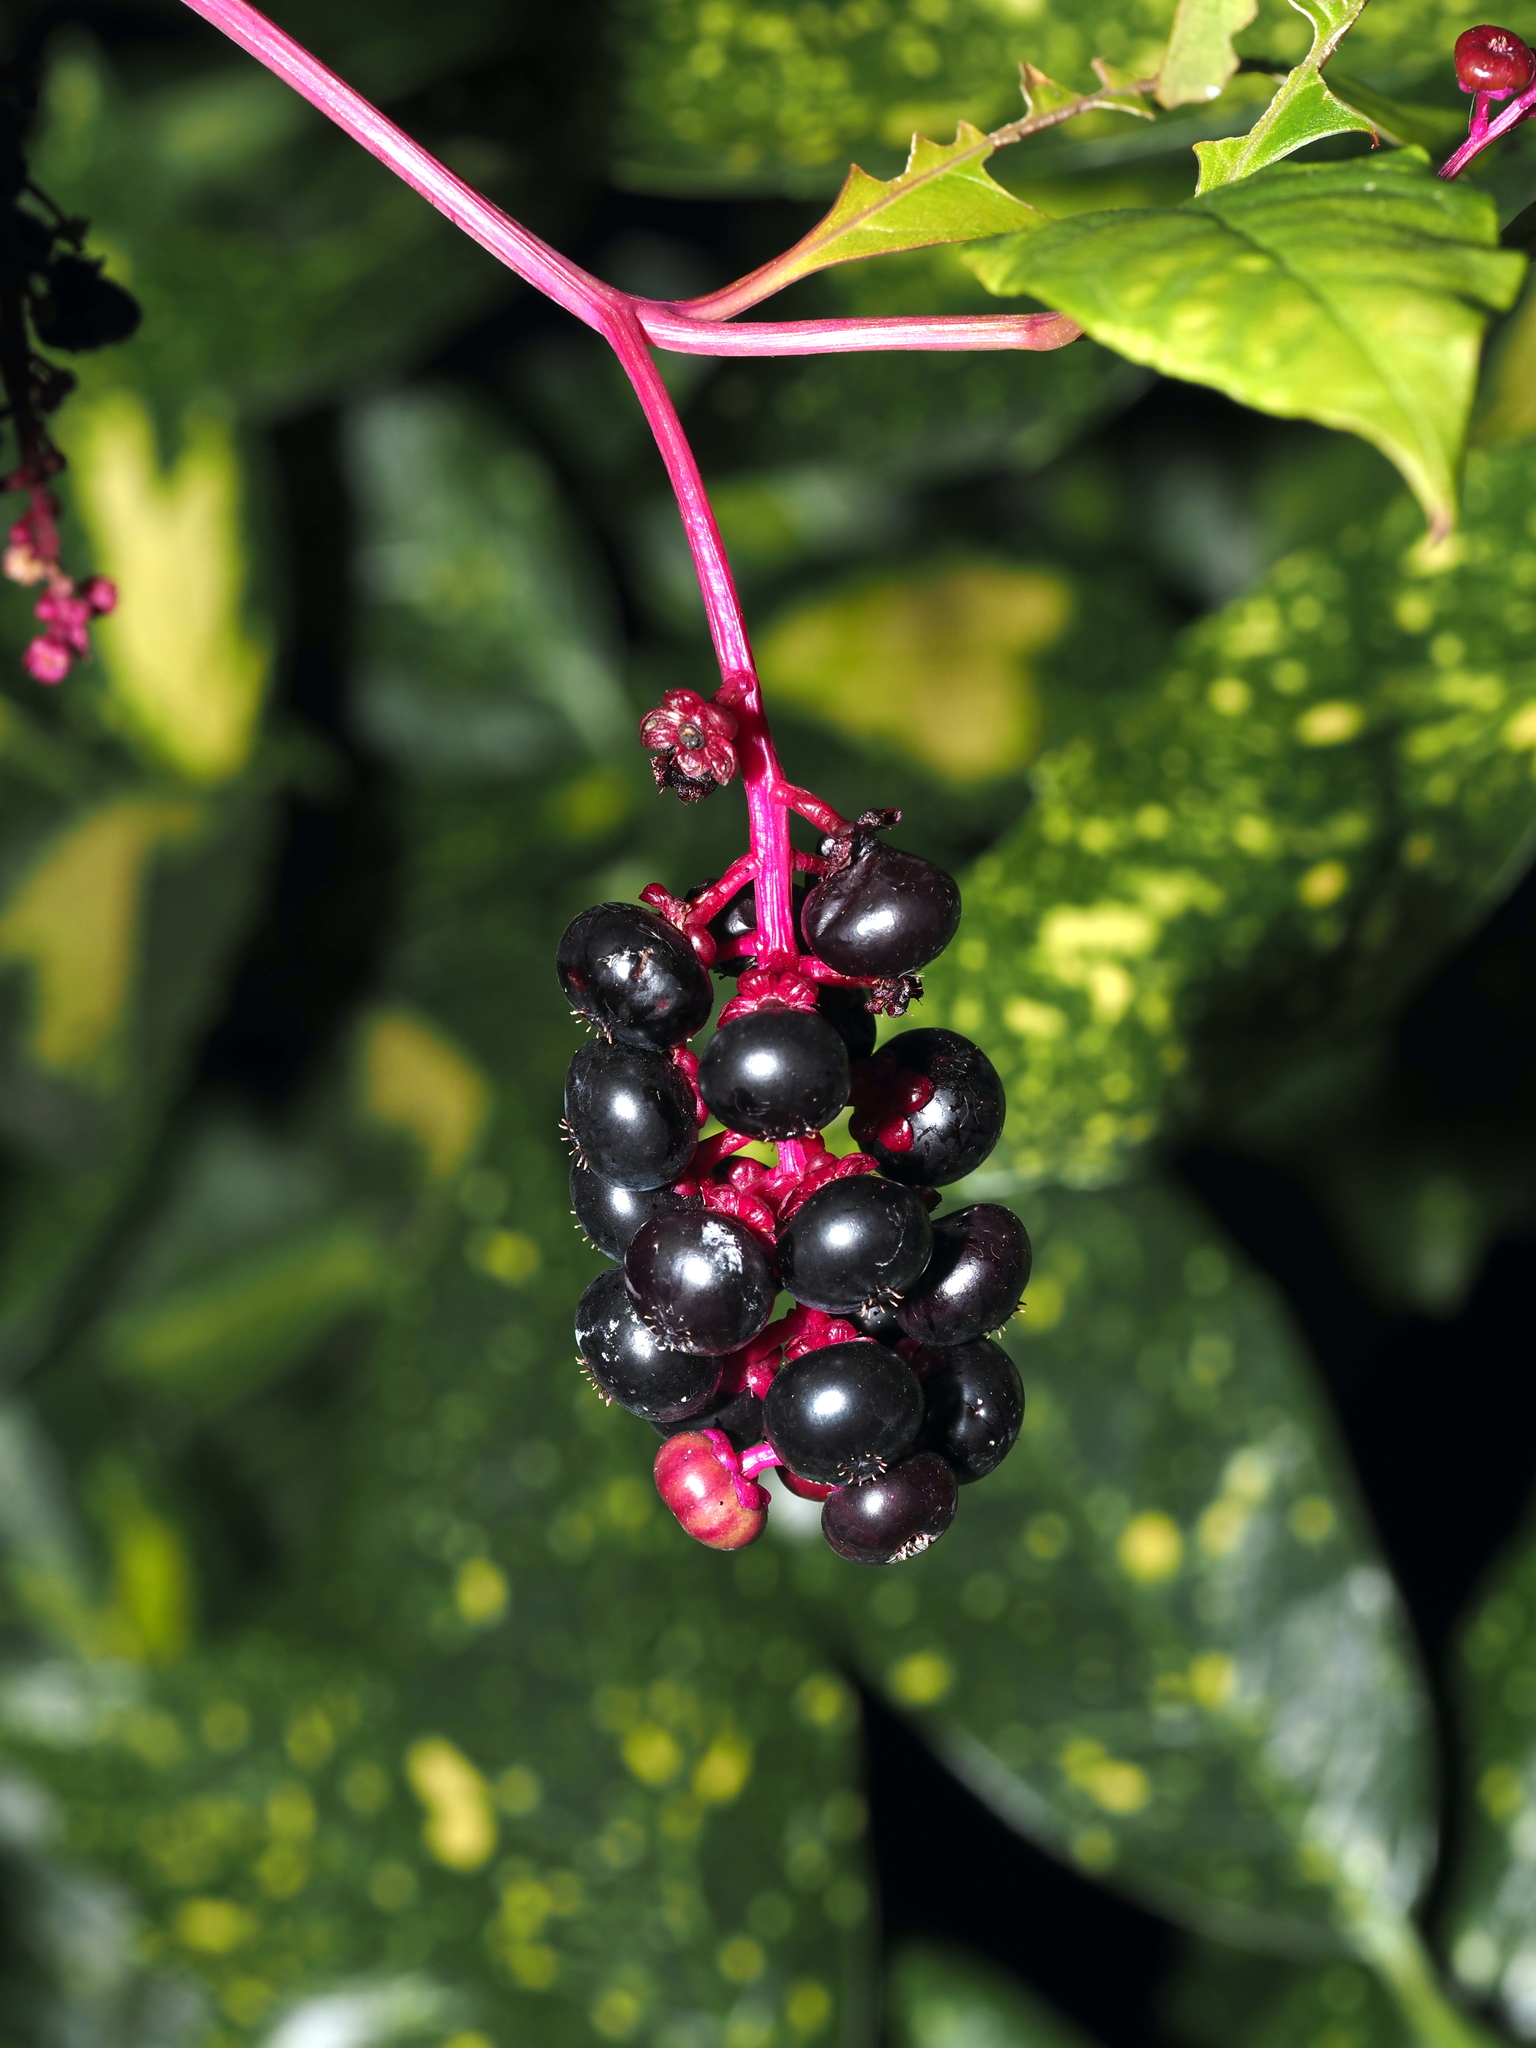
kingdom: Plantae
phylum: Tracheophyta
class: Magnoliopsida
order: Caryophyllales
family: Phytolaccaceae
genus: Phytolacca
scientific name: Phytolacca americana
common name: American pokeweed
